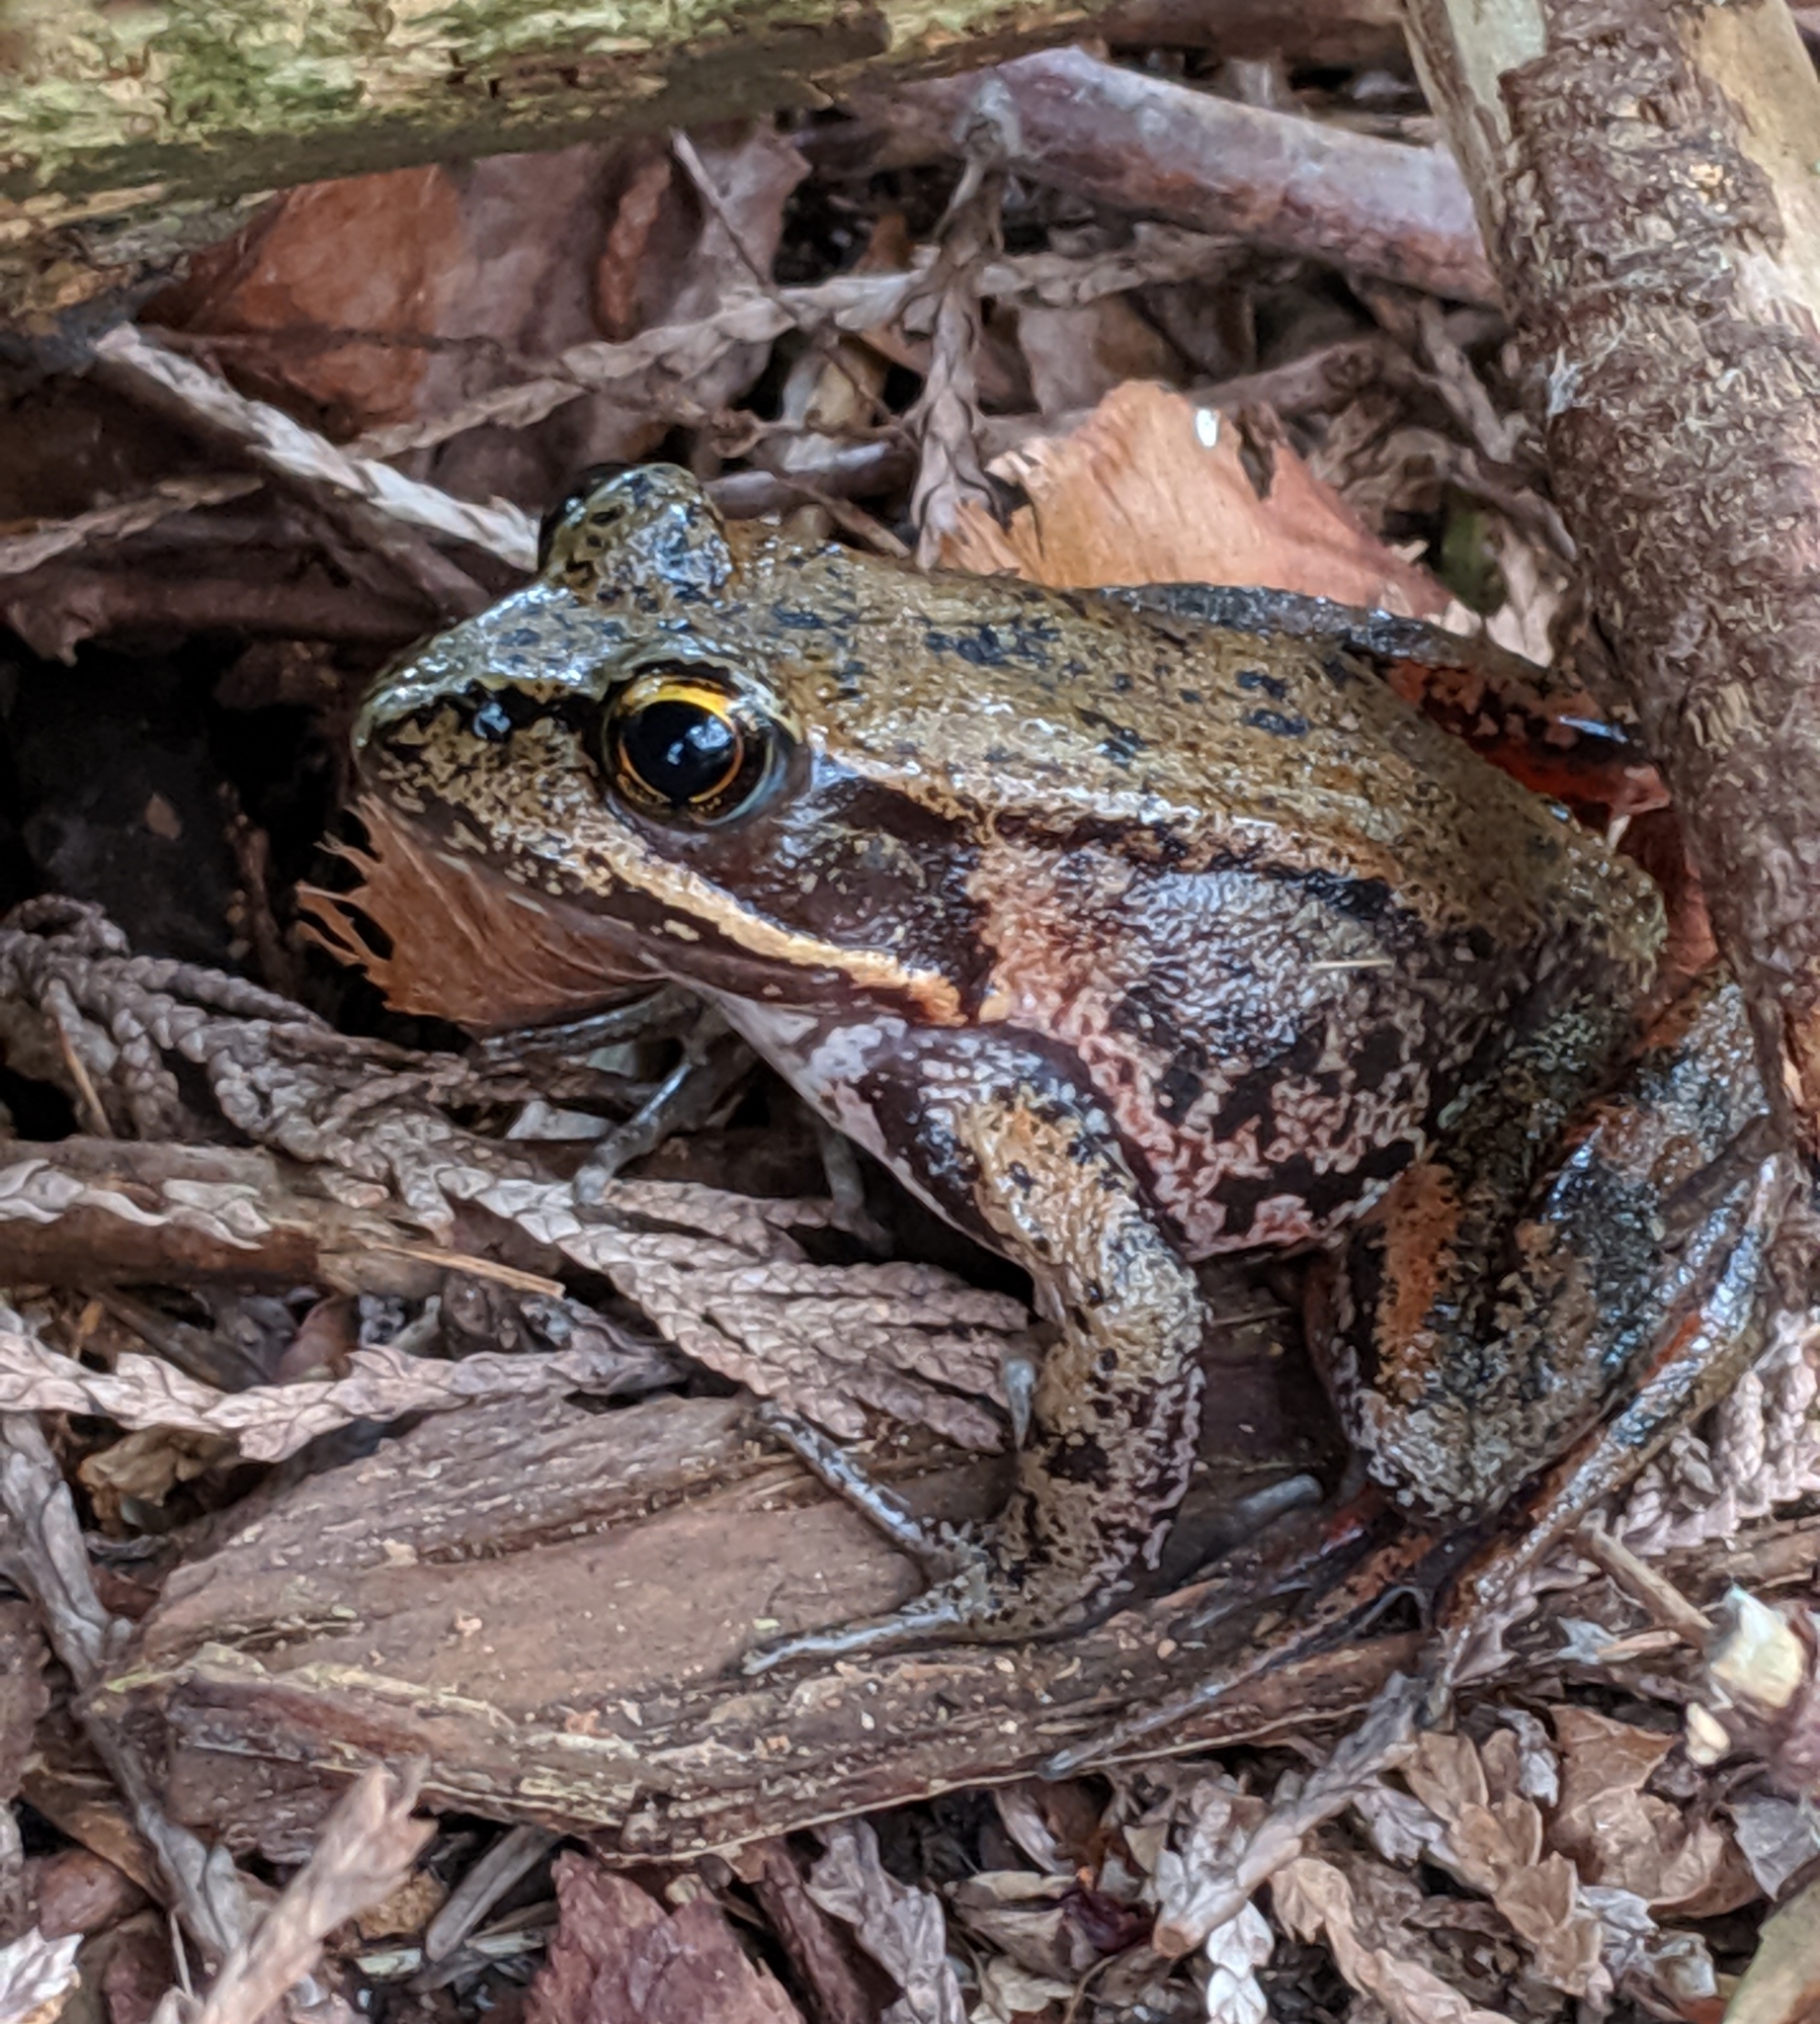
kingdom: Animalia
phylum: Chordata
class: Amphibia
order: Anura
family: Ranidae
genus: Rana
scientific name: Rana aurora
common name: Red-legged frog
